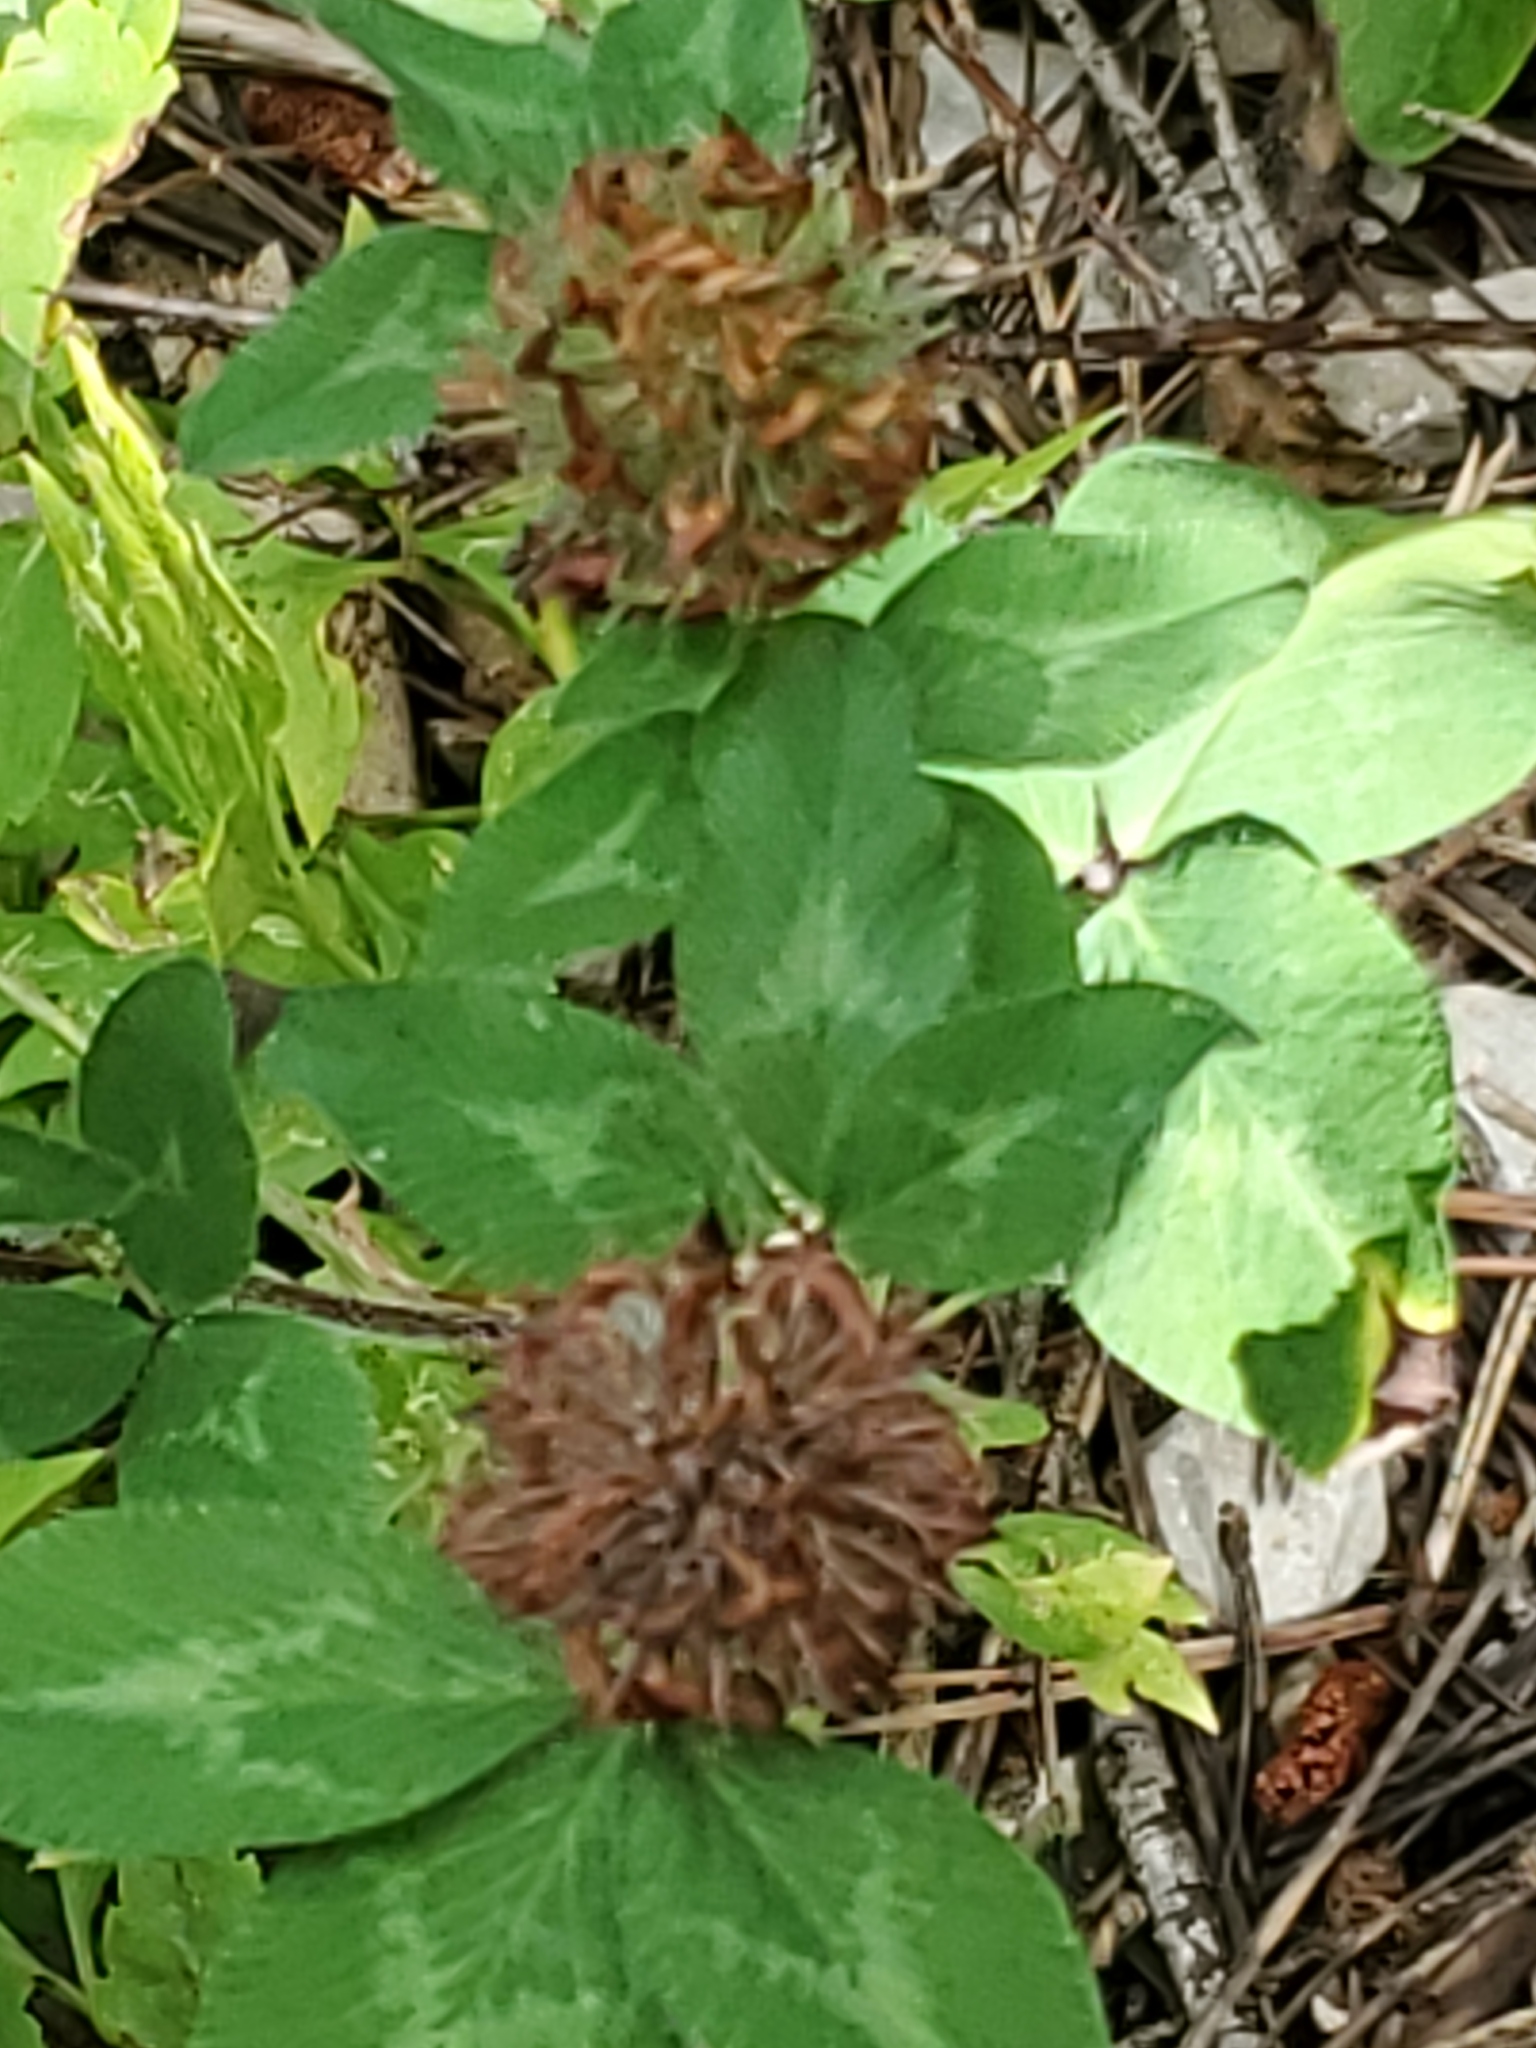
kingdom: Plantae
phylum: Tracheophyta
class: Magnoliopsida
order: Fabales
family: Fabaceae
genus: Trifolium
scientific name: Trifolium pratense
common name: Red clover
